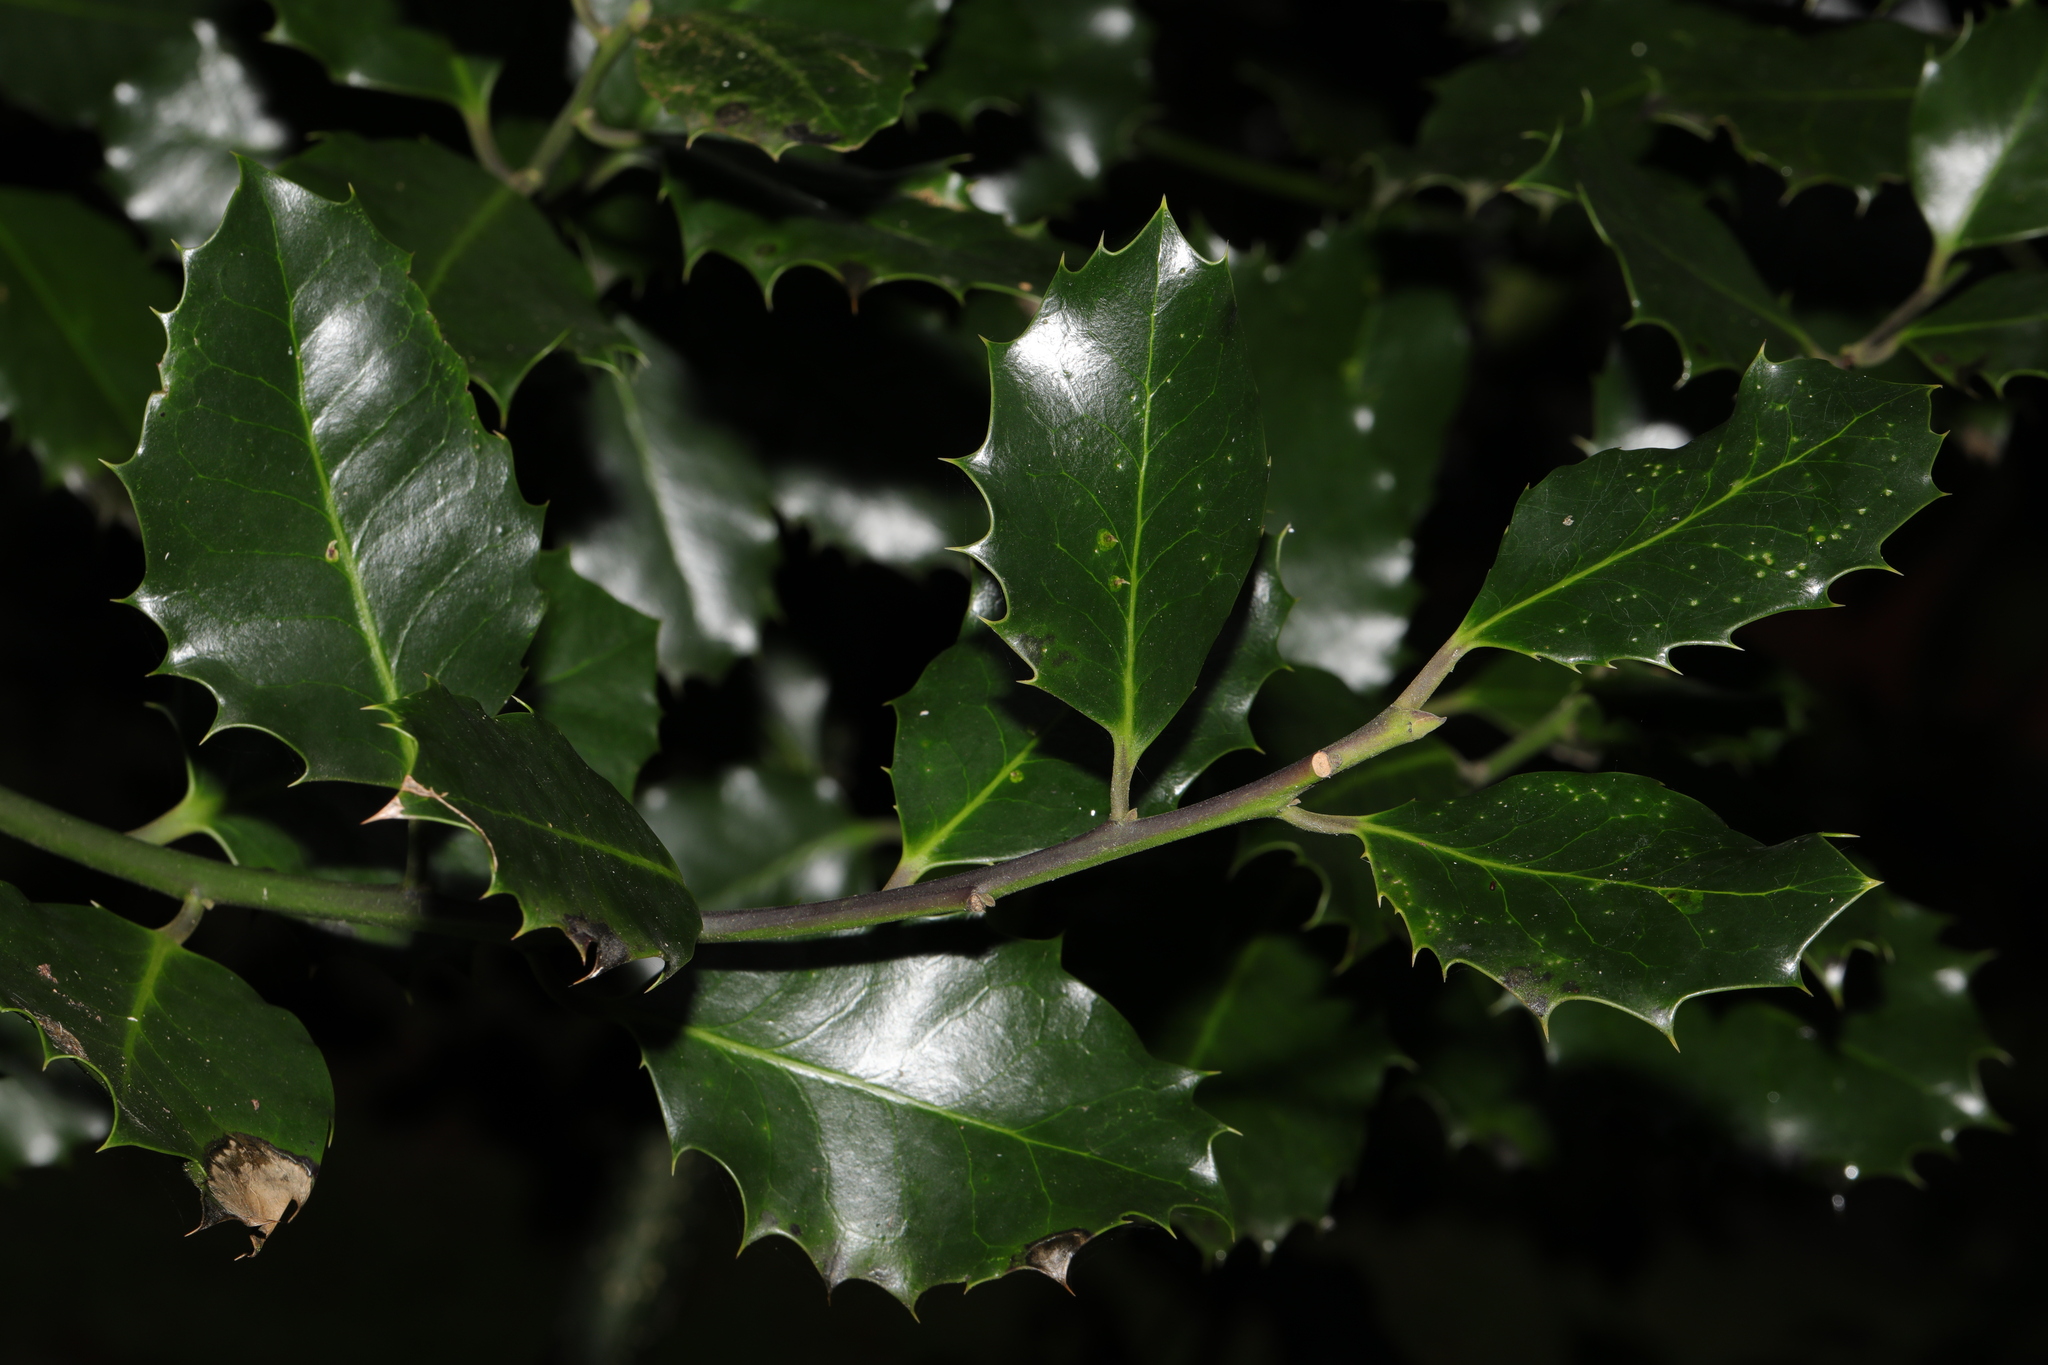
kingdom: Plantae
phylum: Tracheophyta
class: Magnoliopsida
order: Aquifoliales
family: Aquifoliaceae
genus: Ilex
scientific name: Ilex aquifolium
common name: English holly
